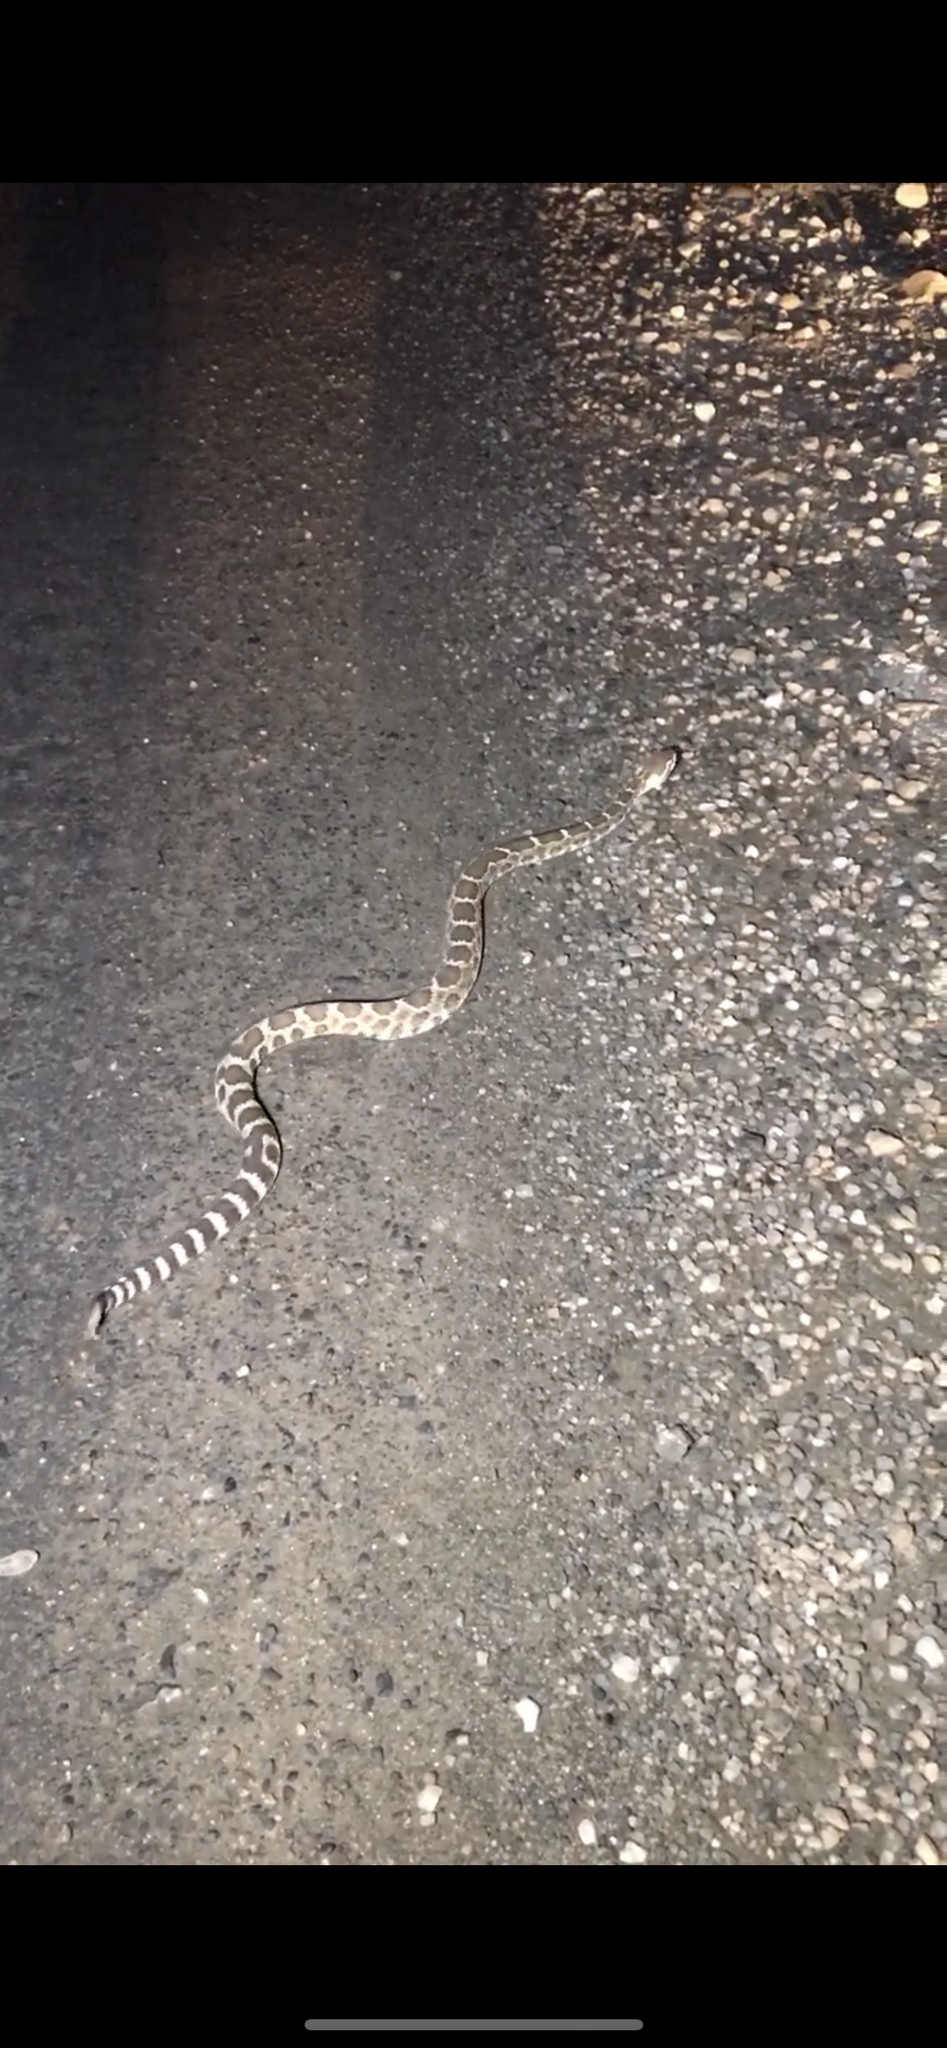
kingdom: Animalia
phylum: Chordata
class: Squamata
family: Viperidae
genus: Crotalus
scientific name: Crotalus oreganus
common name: Abyssus
